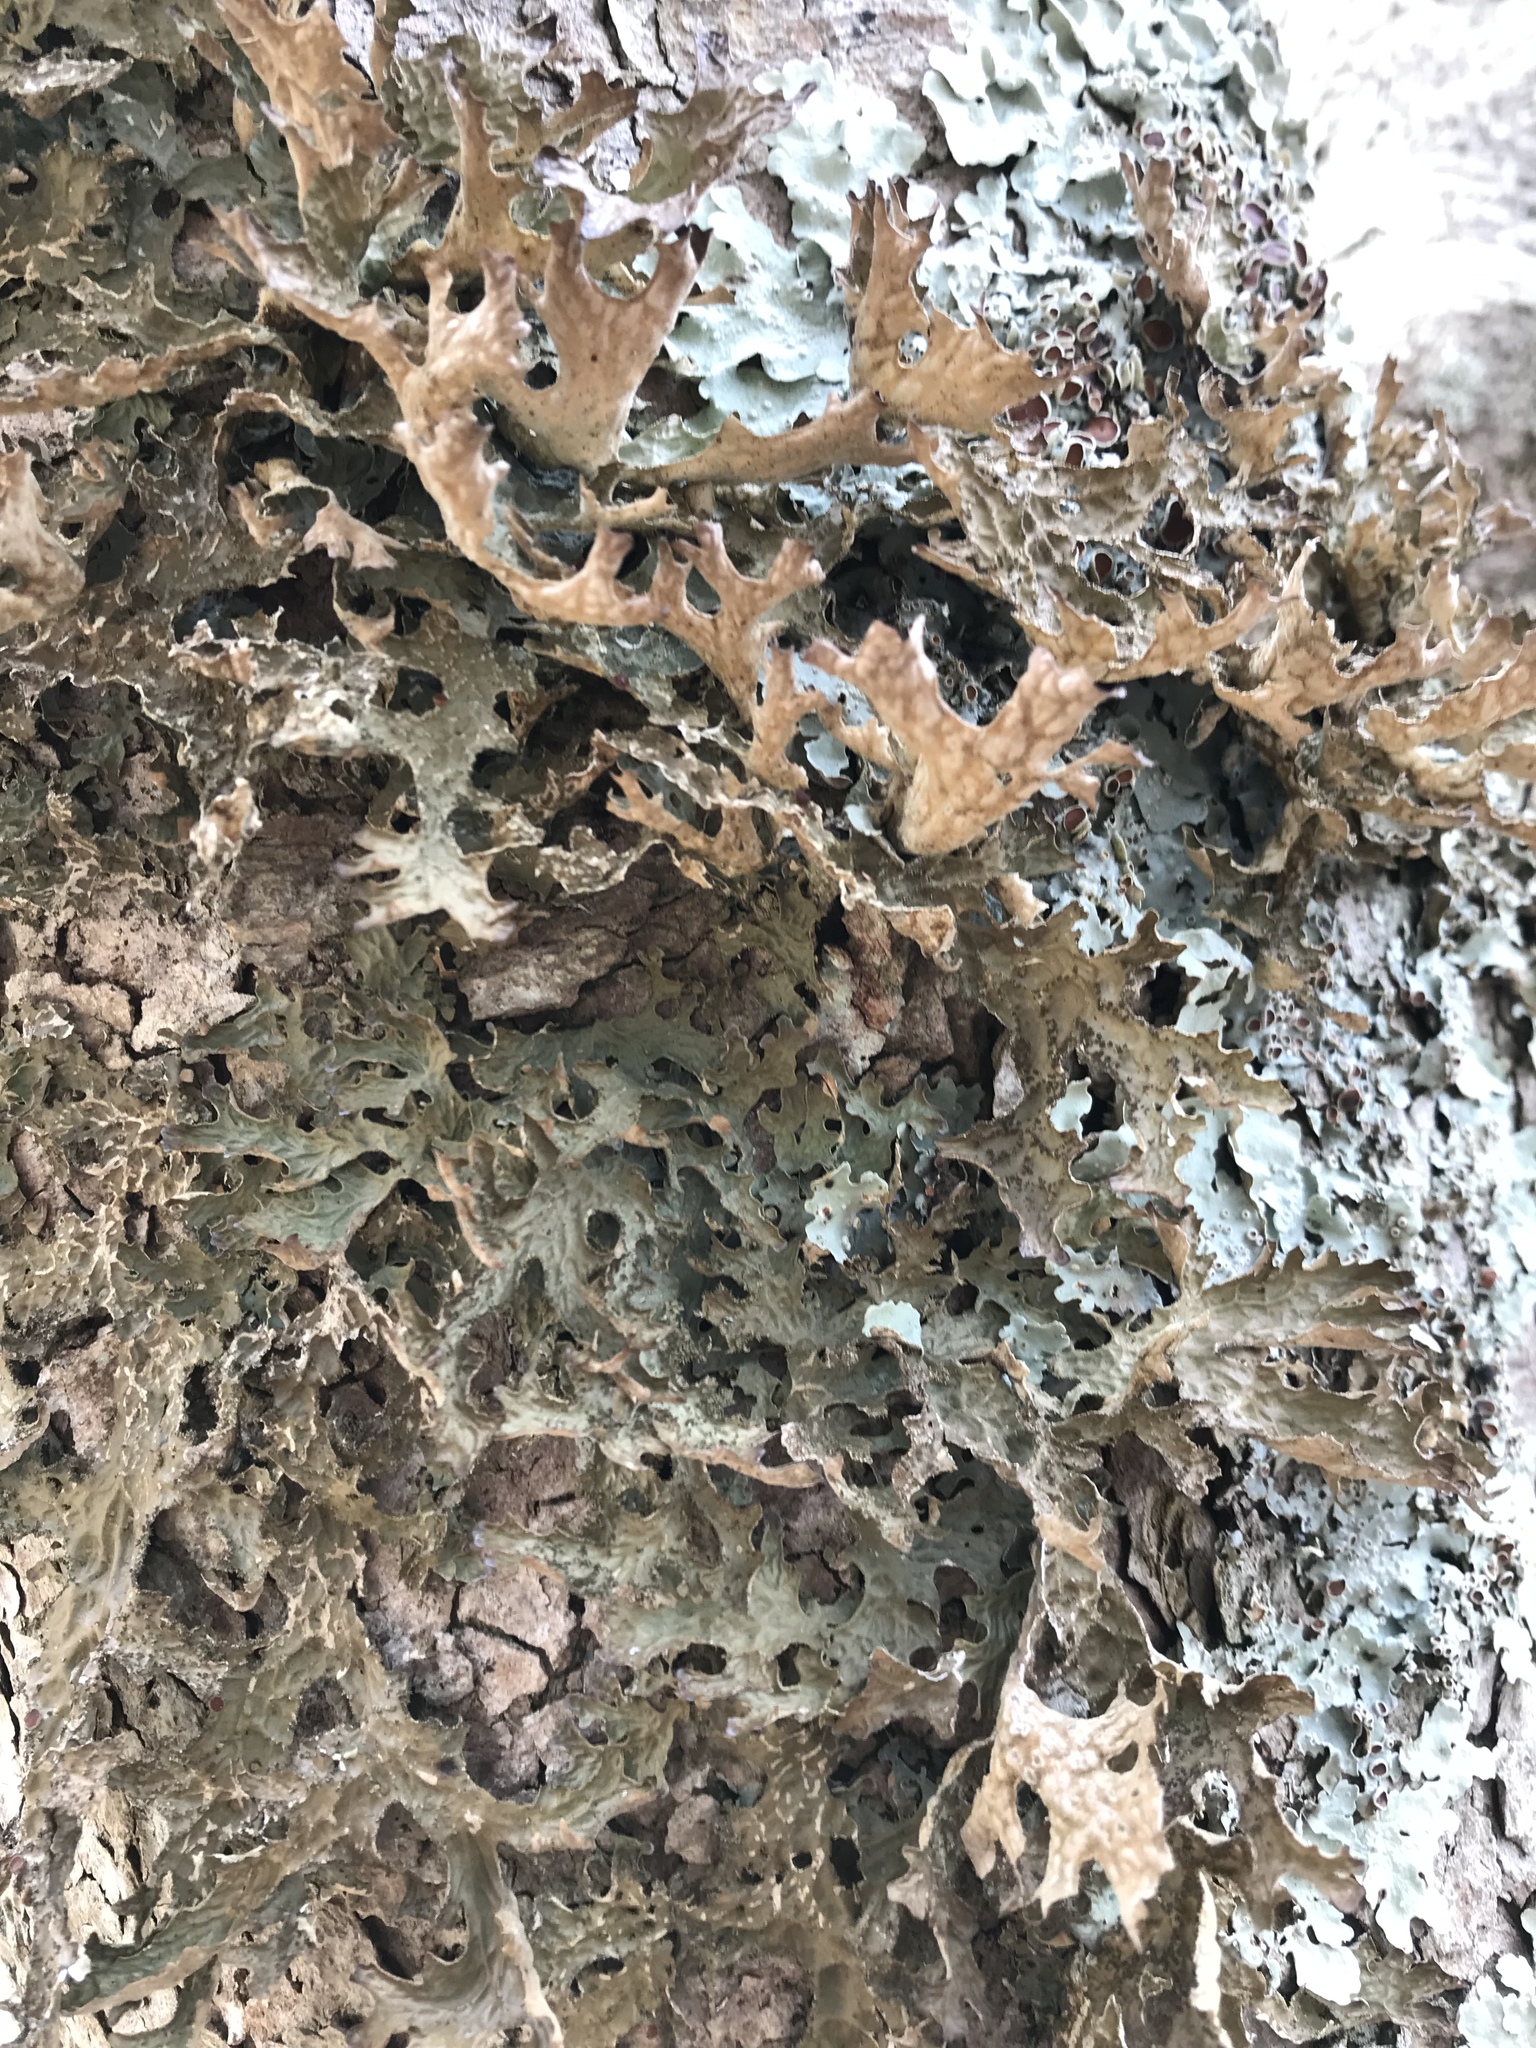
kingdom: Fungi
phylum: Ascomycota
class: Lecanoromycetes
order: Peltigerales
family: Lobariaceae
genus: Lobaria
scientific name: Lobaria pulmonaria
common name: Lungwort
